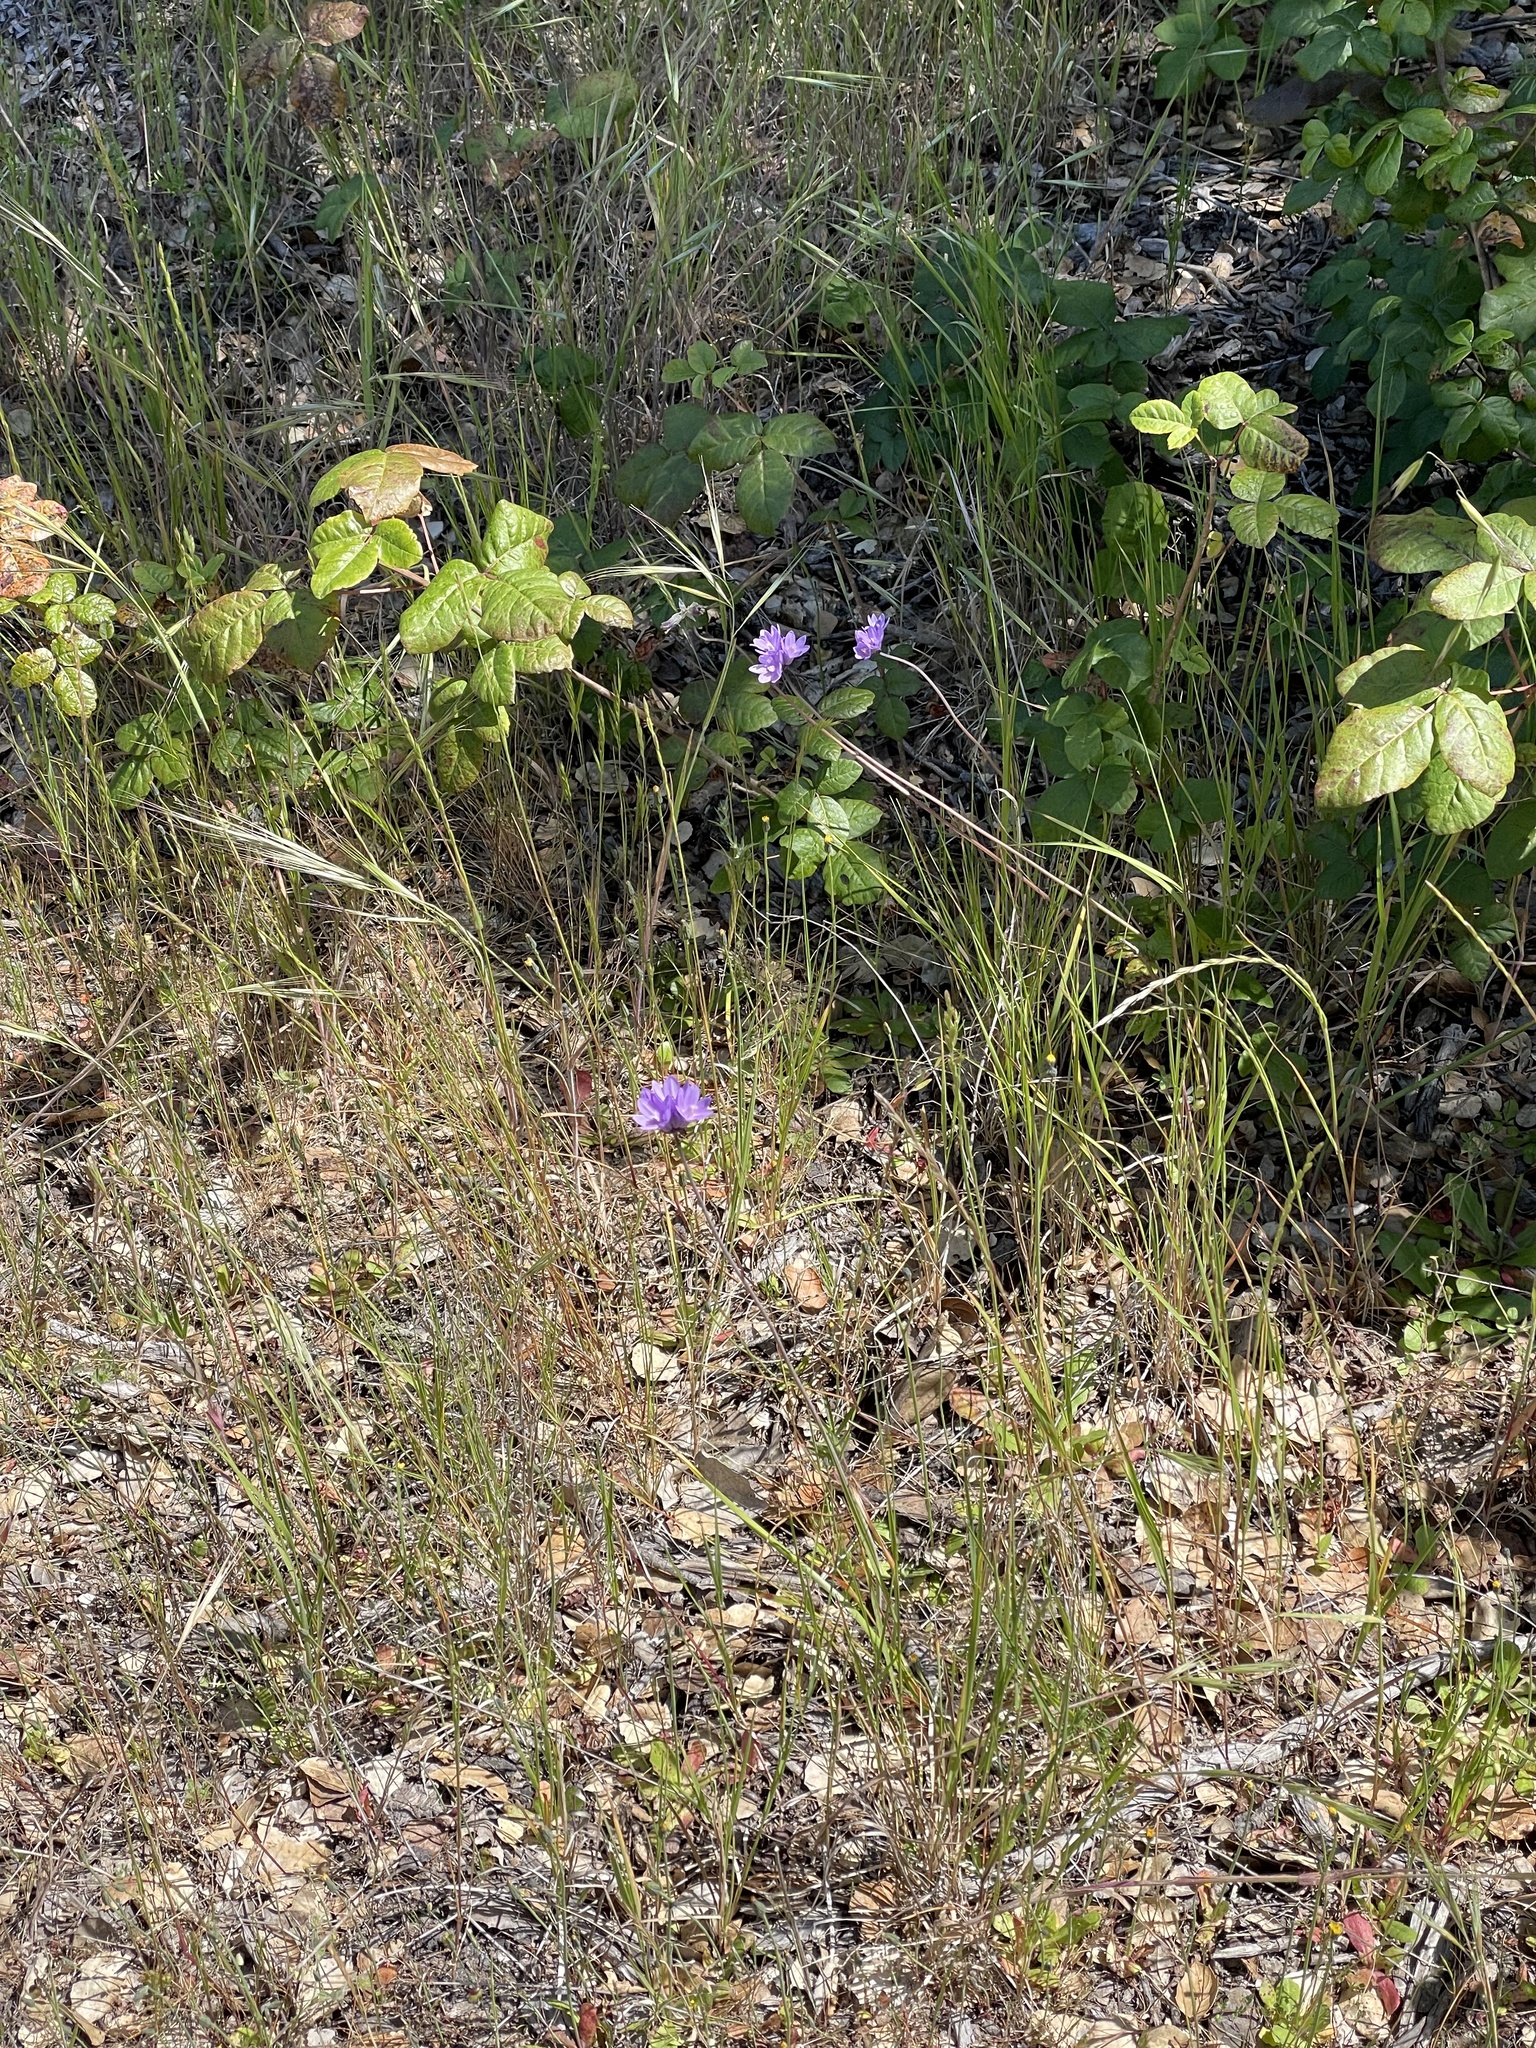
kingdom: Plantae
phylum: Tracheophyta
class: Liliopsida
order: Asparagales
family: Asparagaceae
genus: Dipterostemon
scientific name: Dipterostemon capitatus
